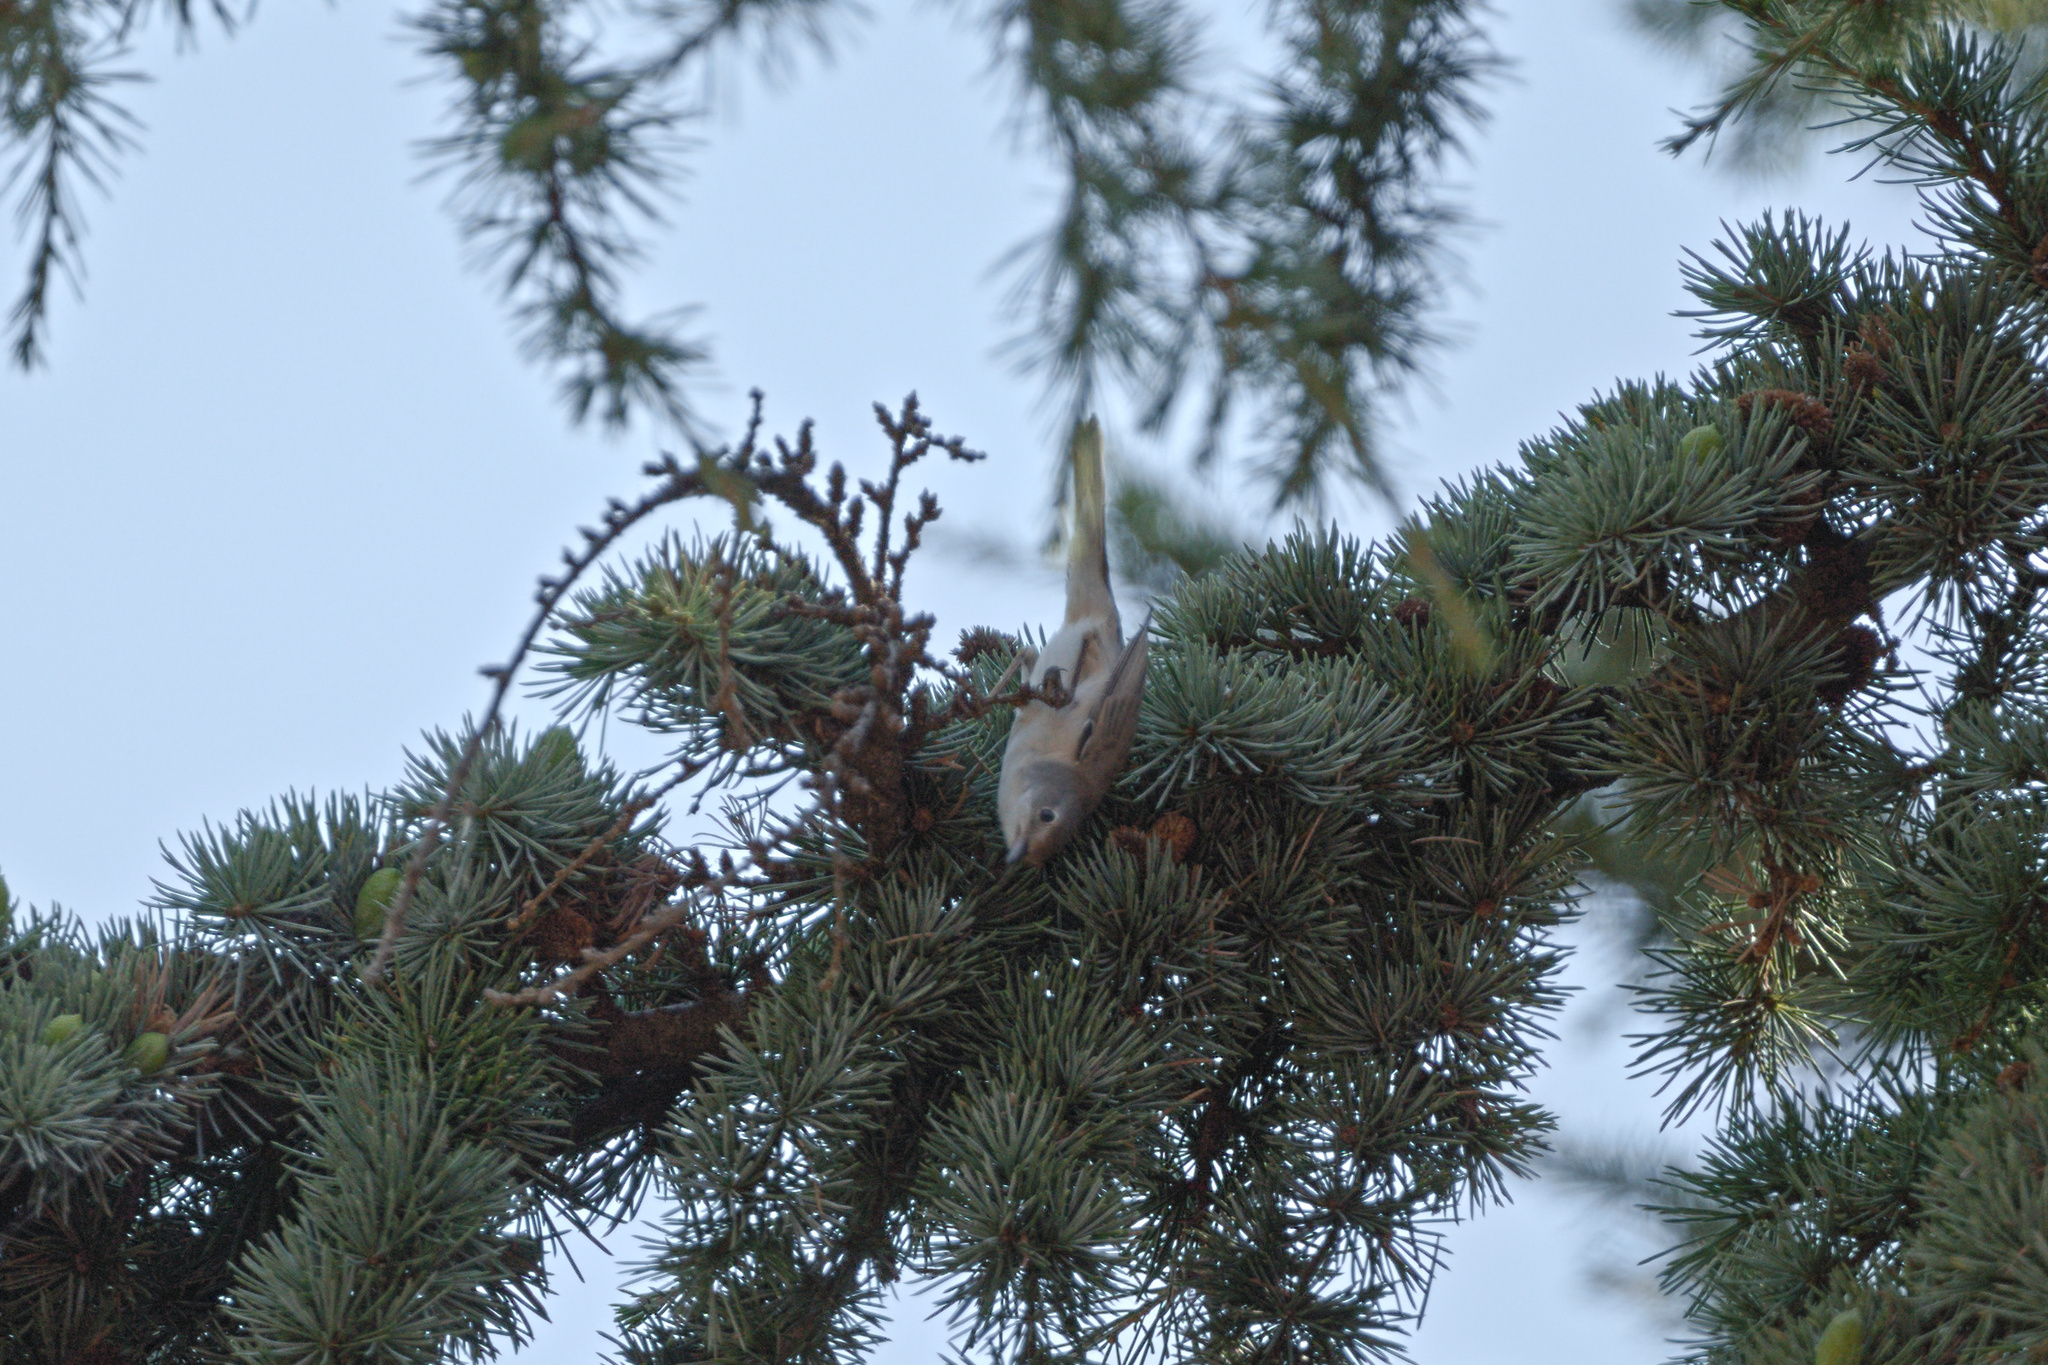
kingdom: Animalia
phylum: Chordata
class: Aves
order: Passeriformes
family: Sylviidae
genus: Sylvia
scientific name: Sylvia borin
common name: Garden warbler
